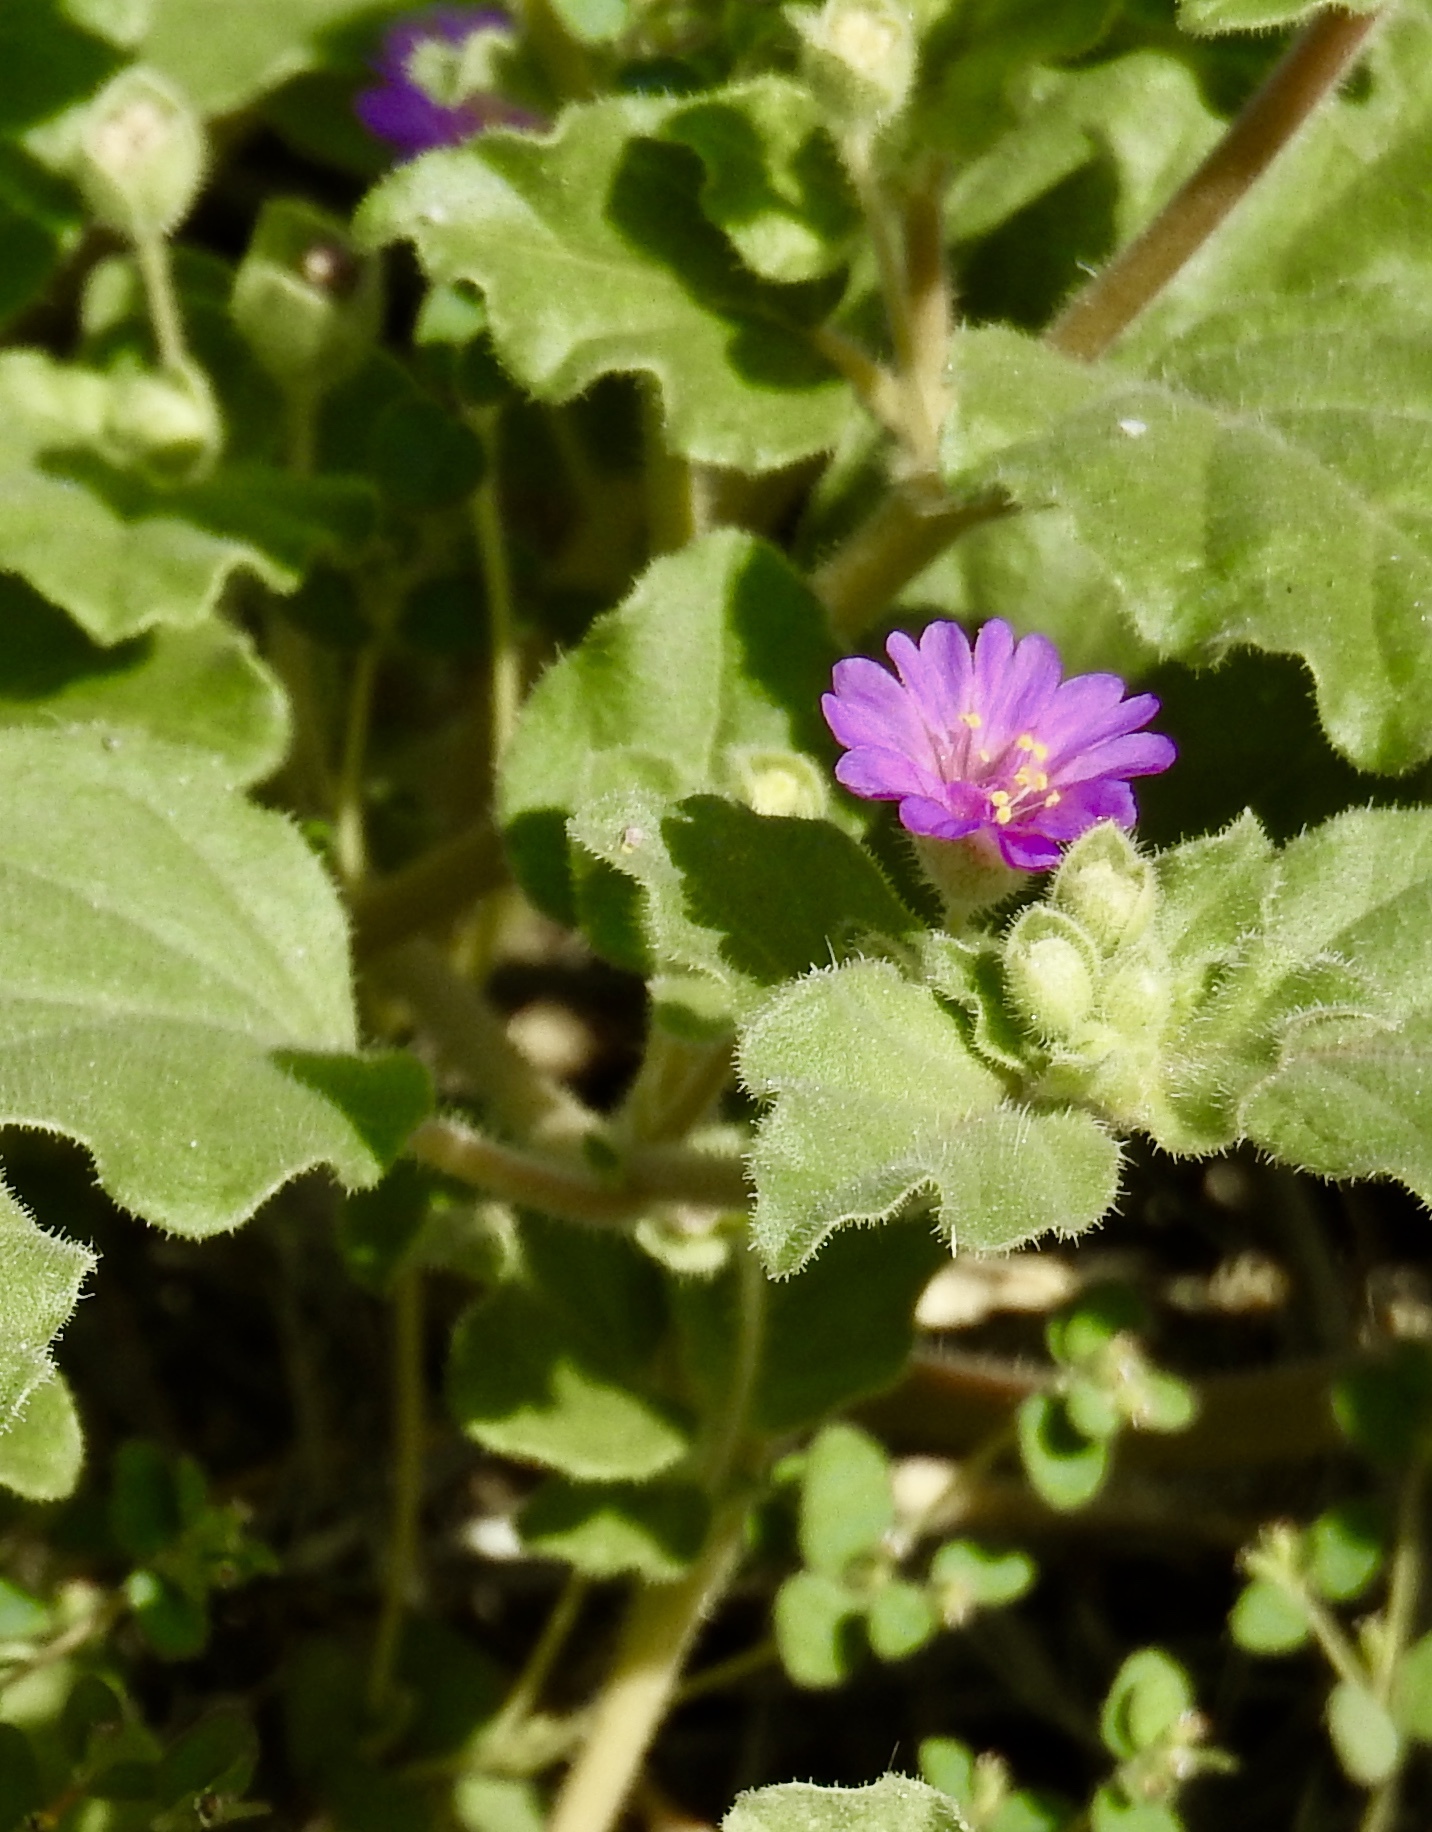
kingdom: Plantae
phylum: Tracheophyta
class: Magnoliopsida
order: Caryophyllales
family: Nyctaginaceae
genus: Allionia
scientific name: Allionia incarnata
